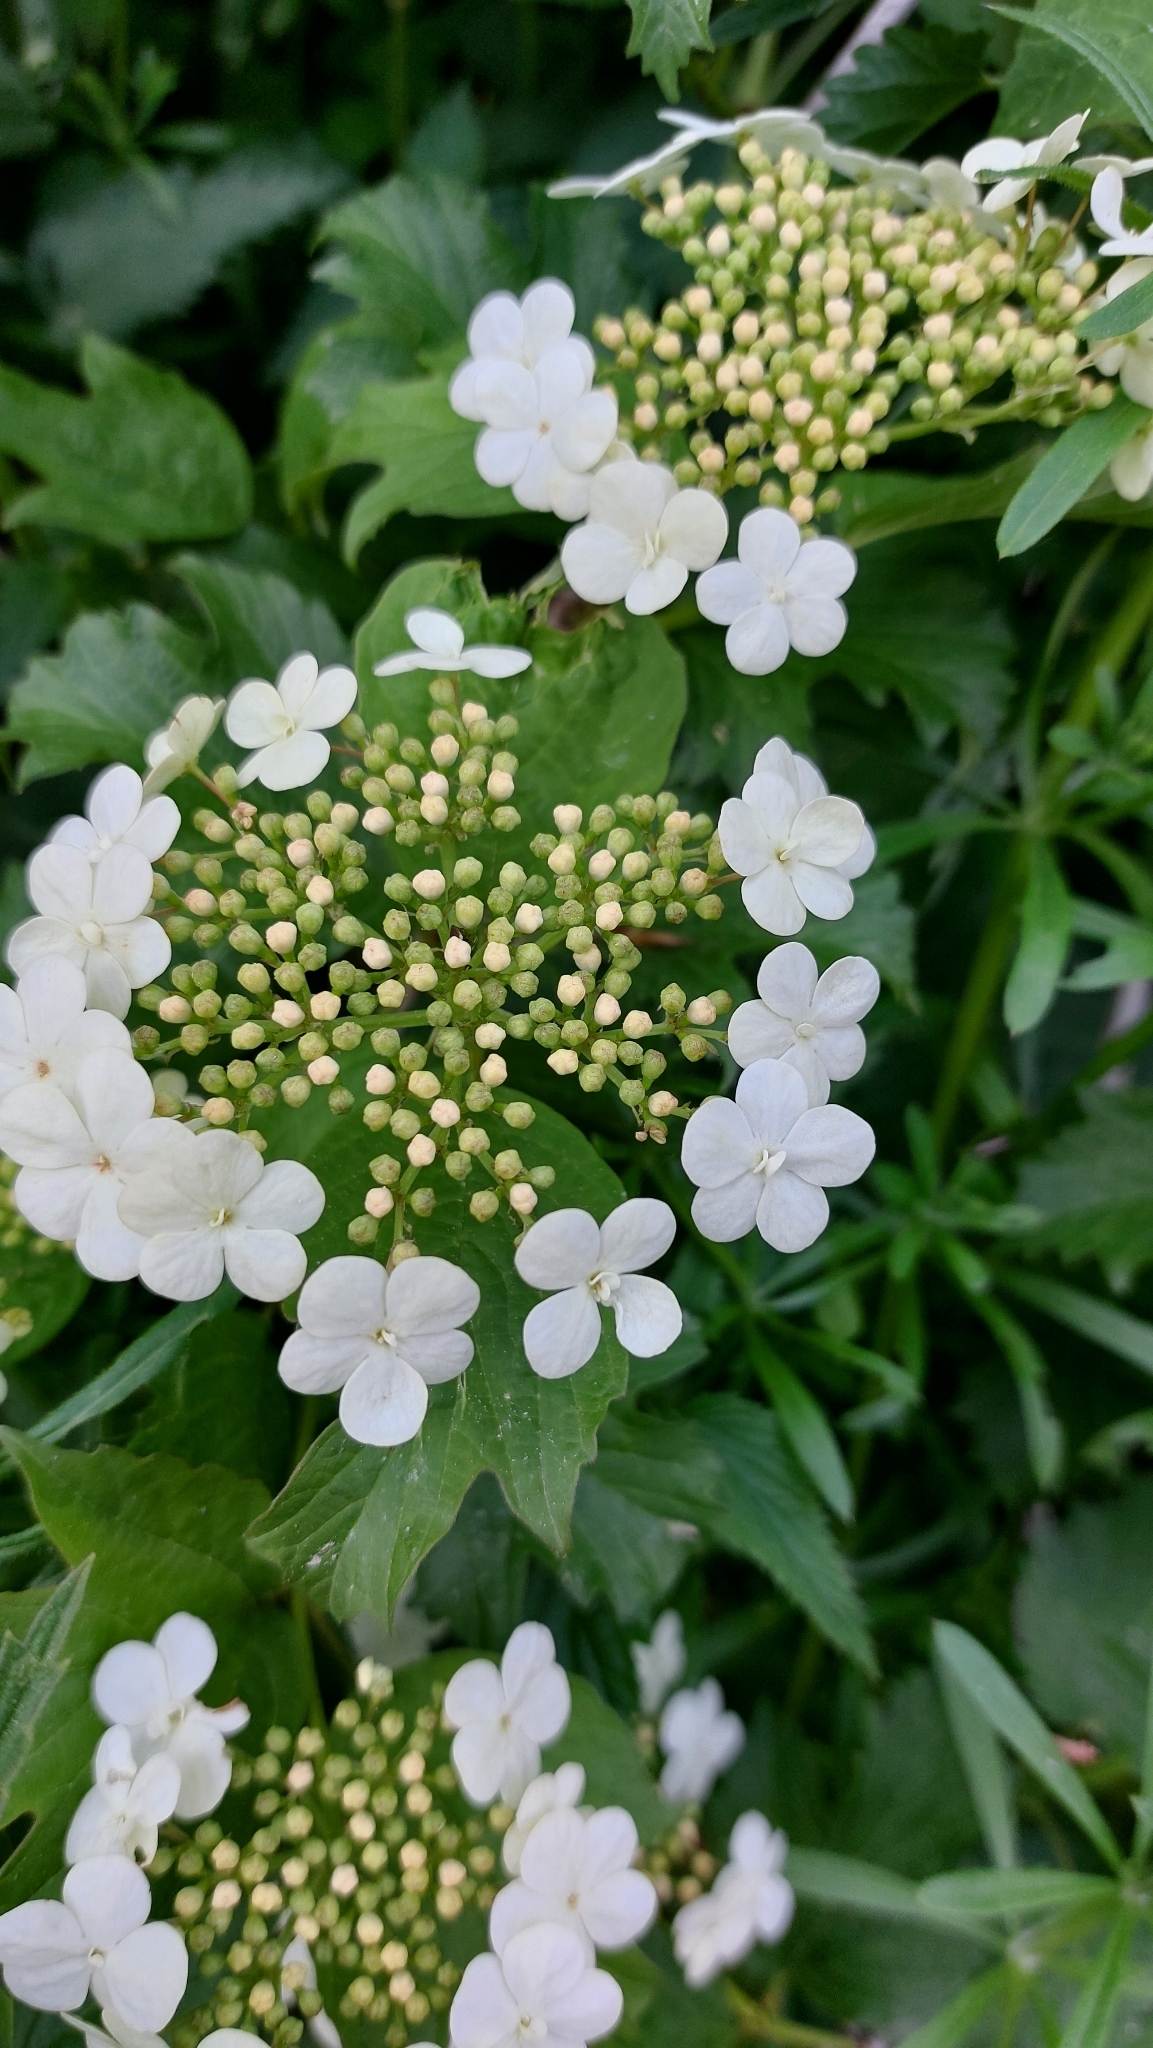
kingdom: Plantae
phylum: Tracheophyta
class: Magnoliopsida
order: Dipsacales
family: Viburnaceae
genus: Viburnum
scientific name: Viburnum opulus
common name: Guelder-rose
